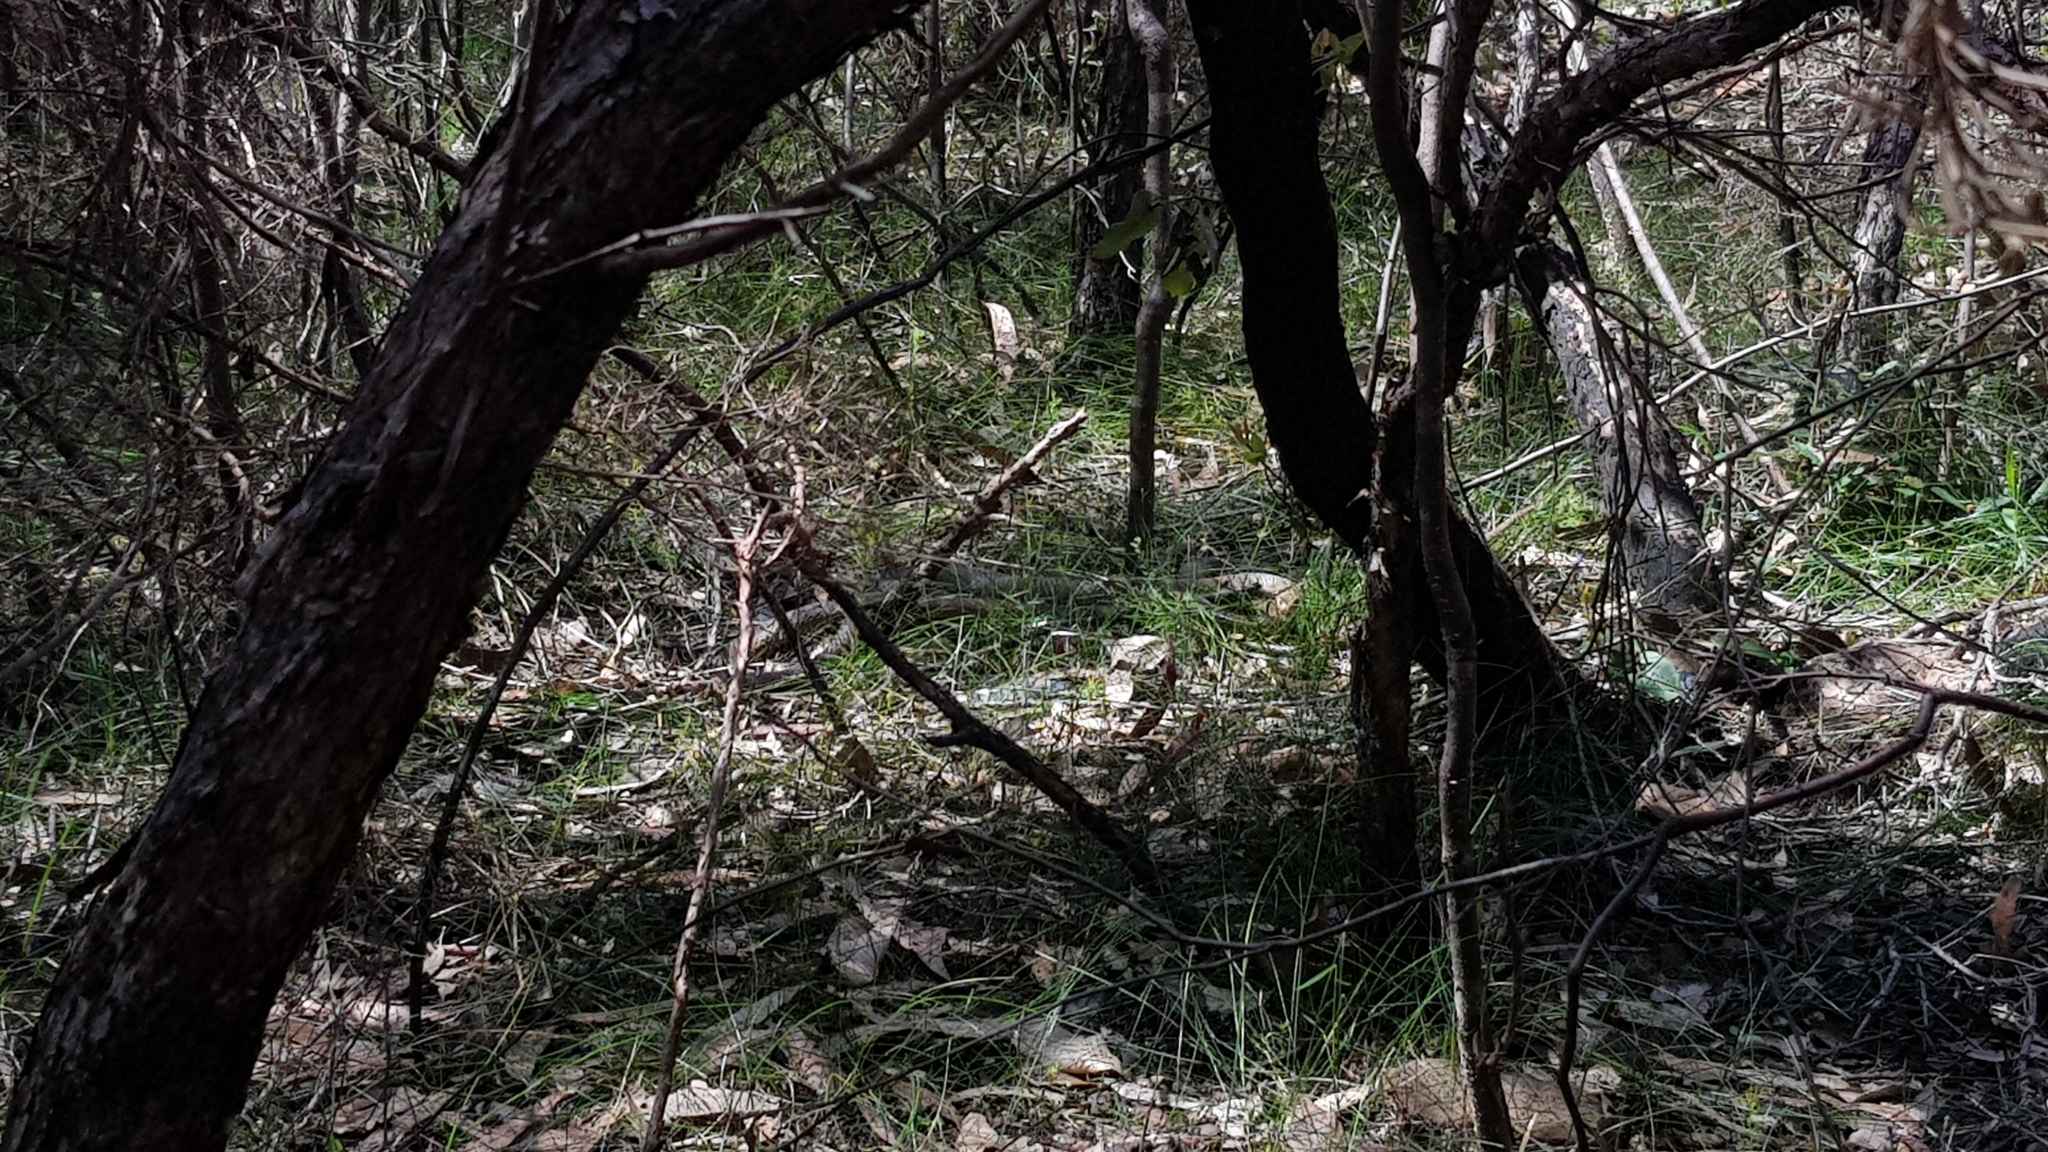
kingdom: Animalia
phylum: Chordata
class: Squamata
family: Elapidae
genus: Pseudonaja
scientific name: Pseudonaja textilis
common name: Eastern brown snake
